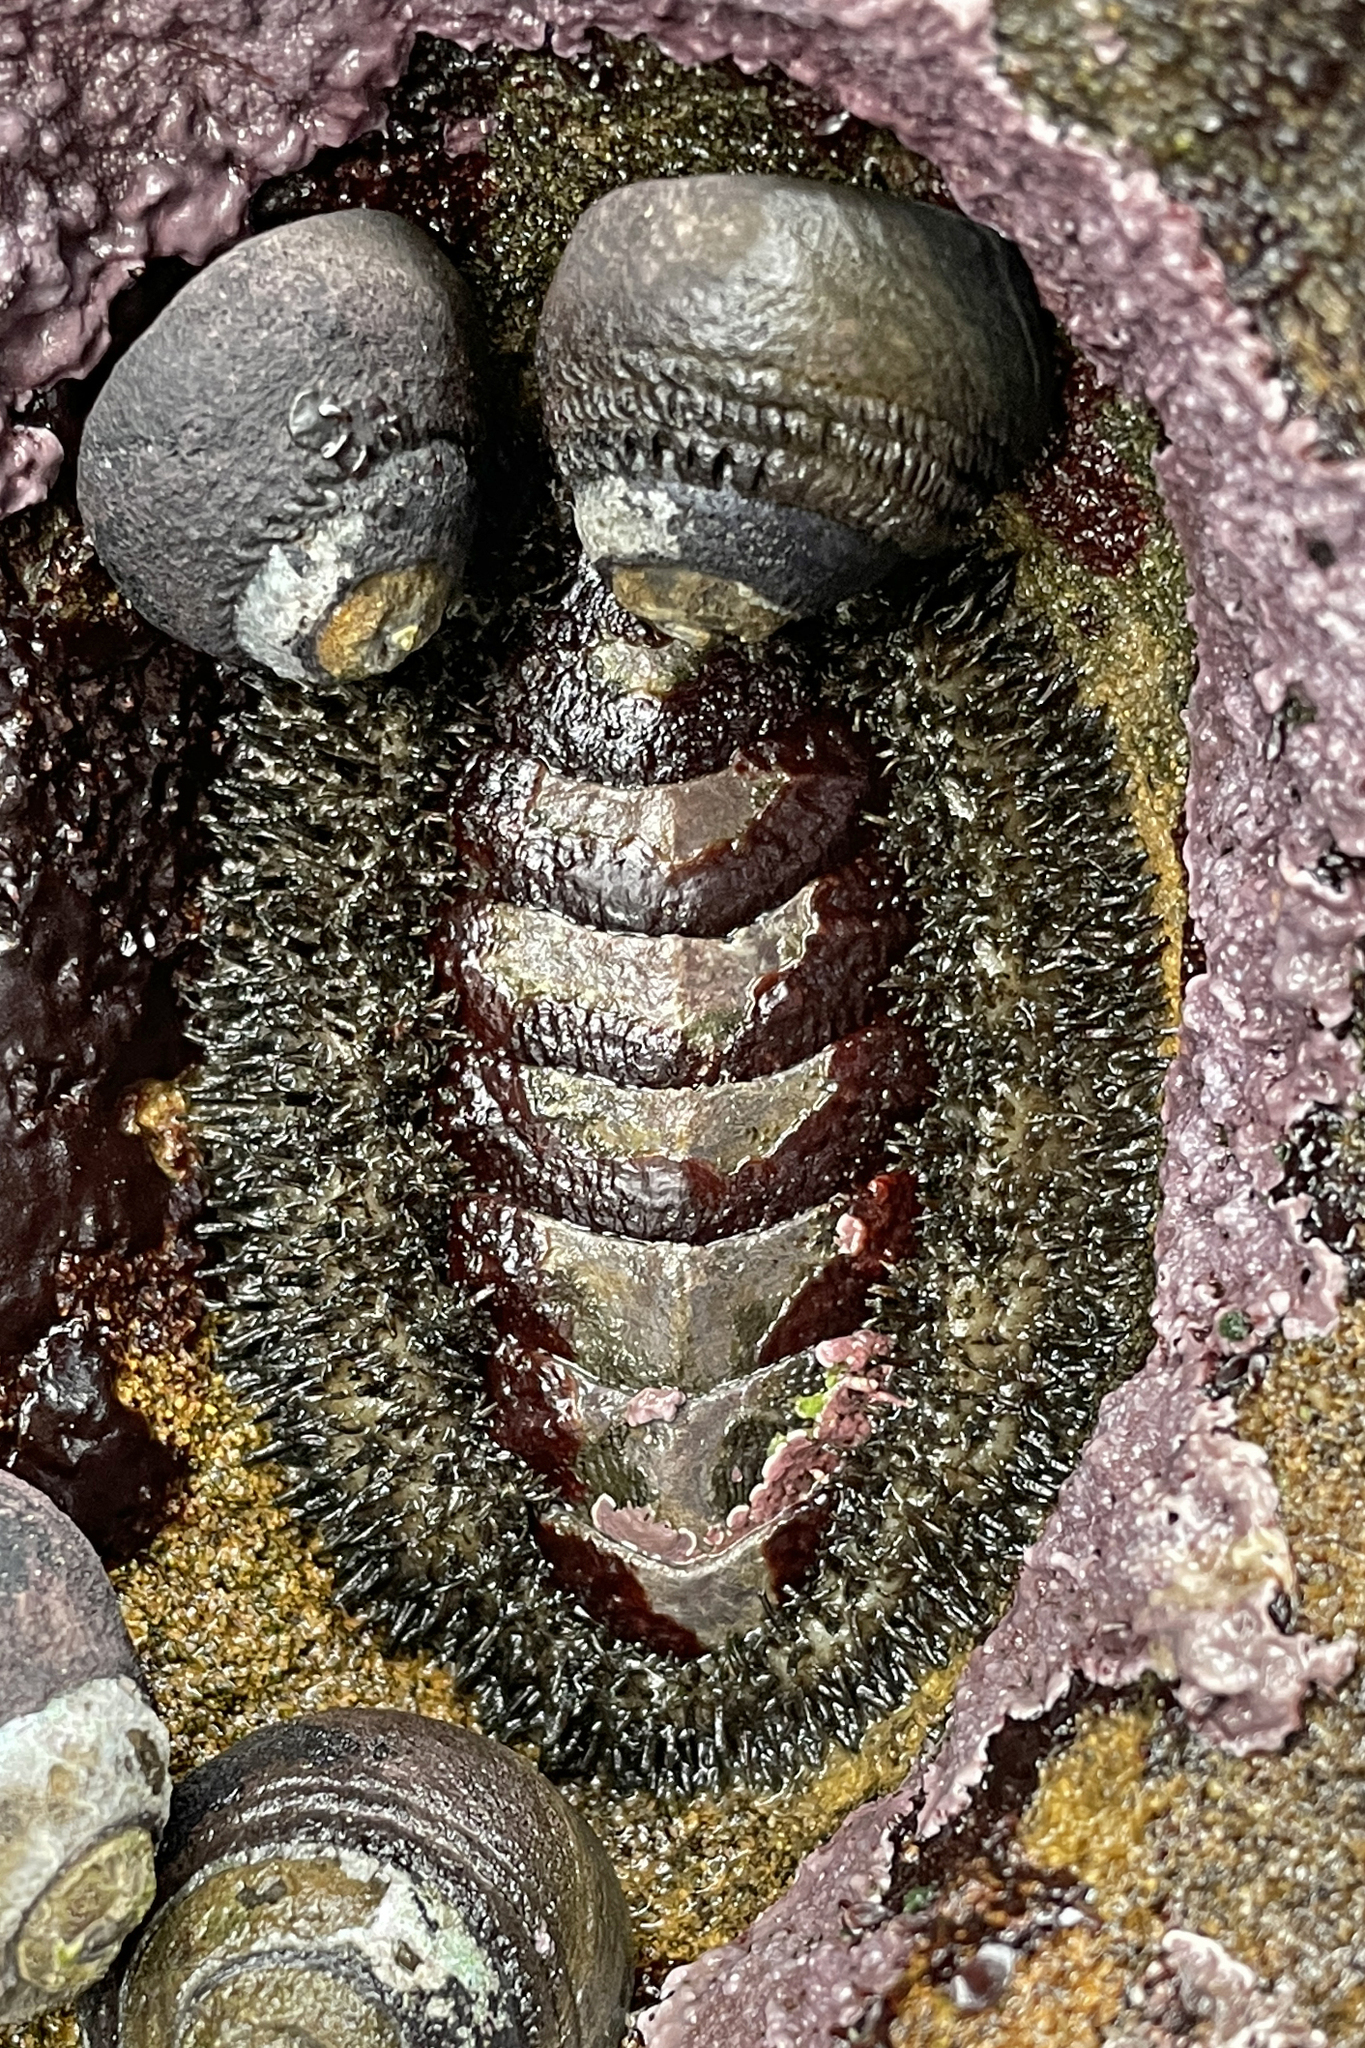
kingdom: Animalia
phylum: Mollusca
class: Polyplacophora
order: Chitonida
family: Mopaliidae
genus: Mopalia
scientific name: Mopalia muscosa
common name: Mossy chiton
